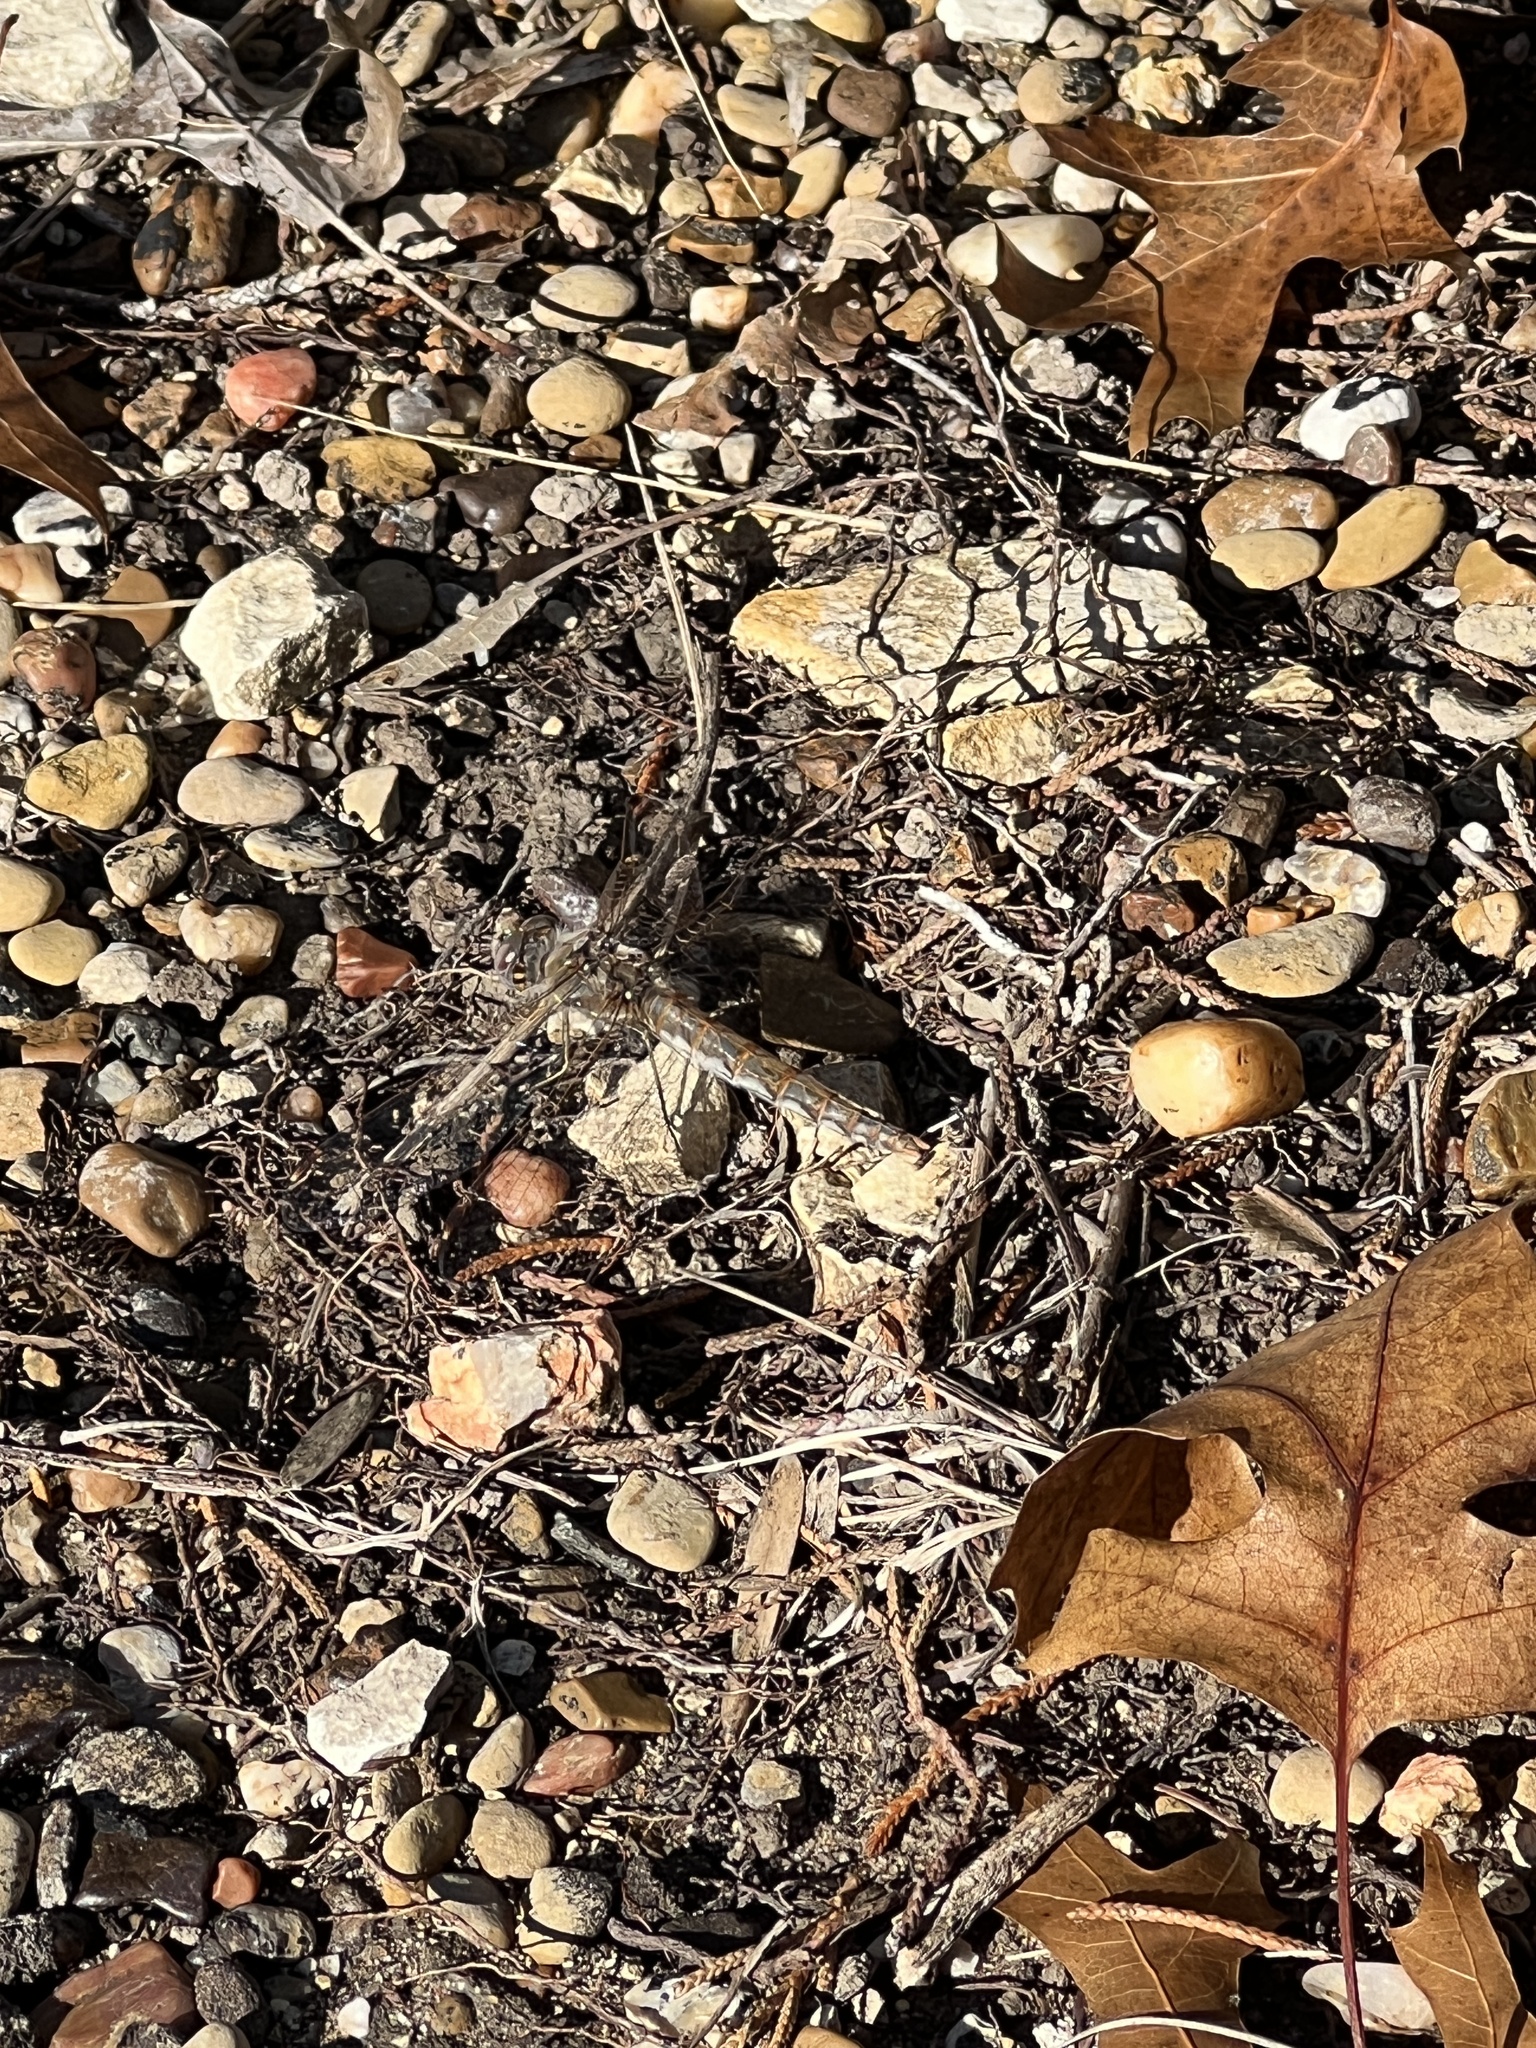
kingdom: Animalia
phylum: Arthropoda
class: Insecta
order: Odonata
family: Libellulidae
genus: Sympetrum
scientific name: Sympetrum corruptum
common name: Variegated meadowhawk
